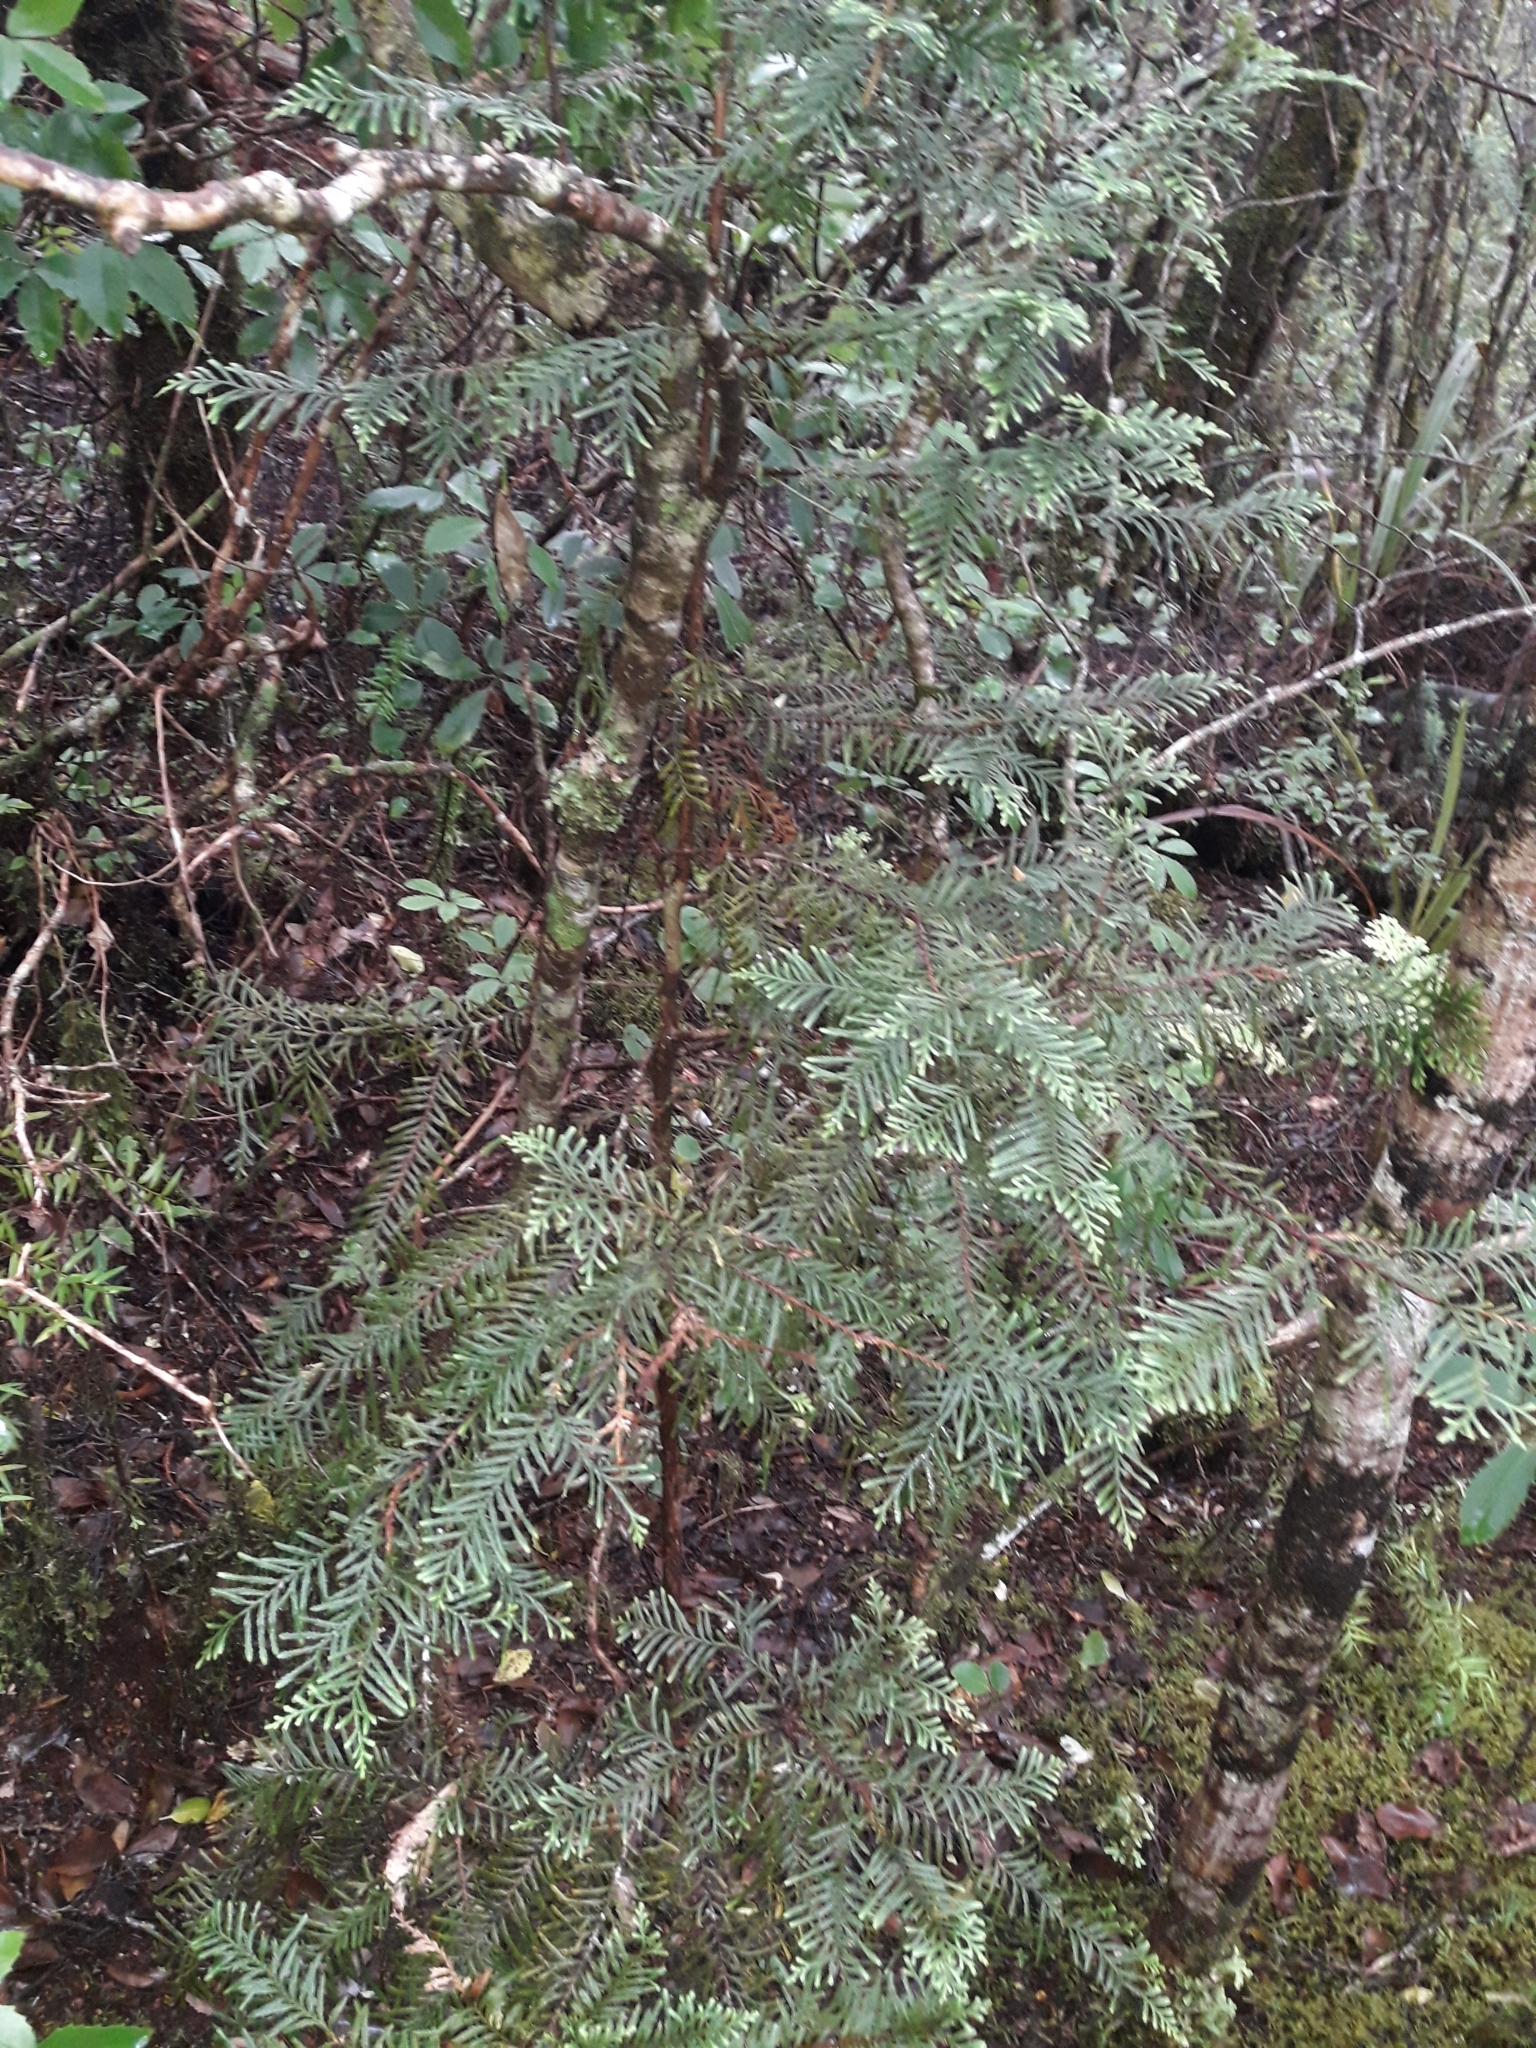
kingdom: Plantae
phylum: Tracheophyta
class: Pinopsida
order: Pinales
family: Cupressaceae
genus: Libocedrus
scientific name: Libocedrus plumosa
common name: New zealand cedar
